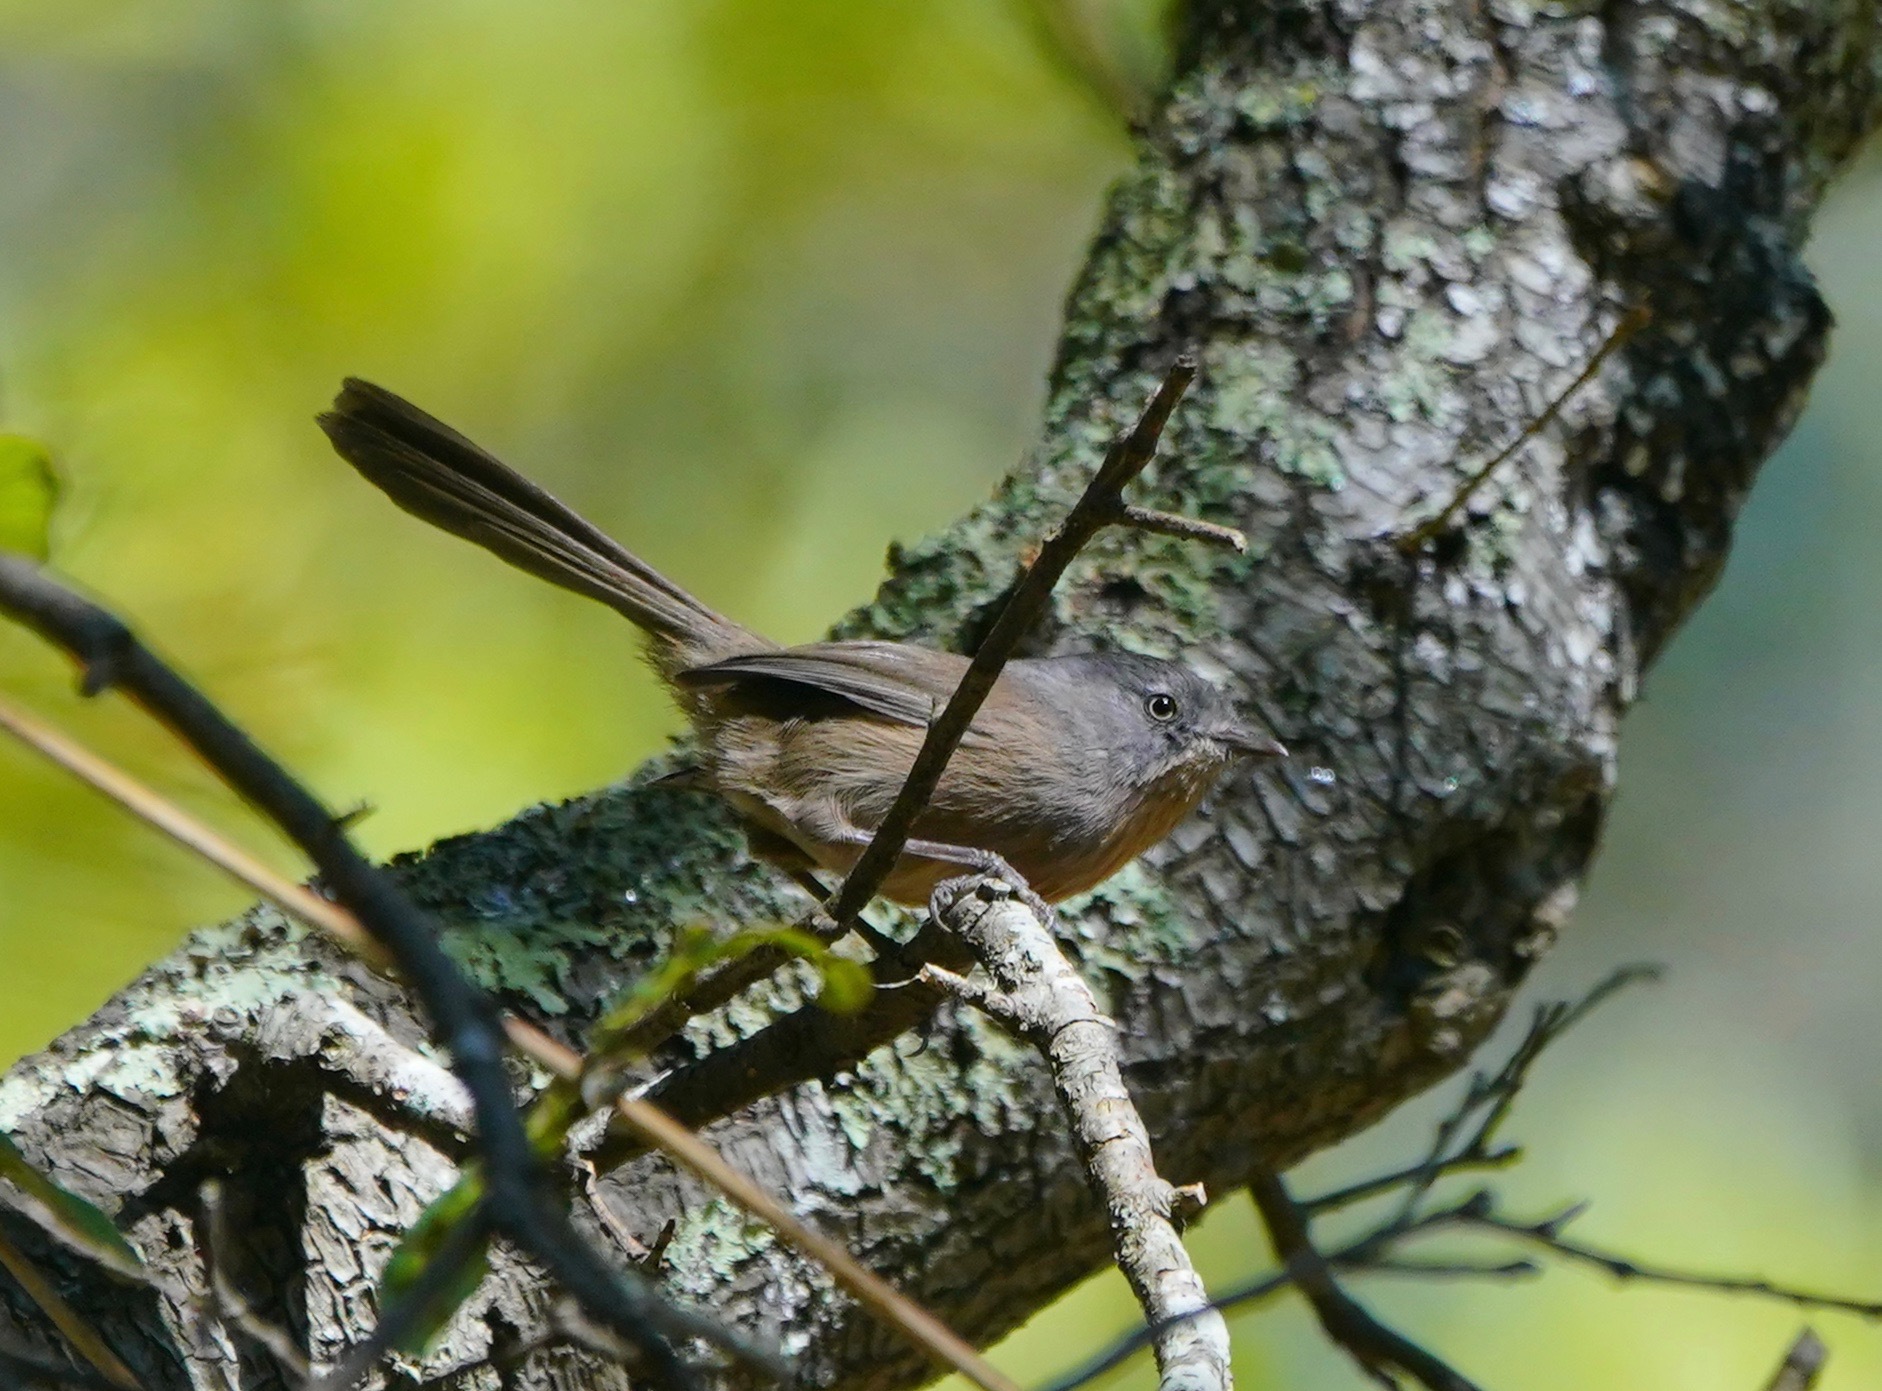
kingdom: Animalia
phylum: Chordata
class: Aves
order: Passeriformes
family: Sylviidae
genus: Chamaea
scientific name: Chamaea fasciata
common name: Wrentit
